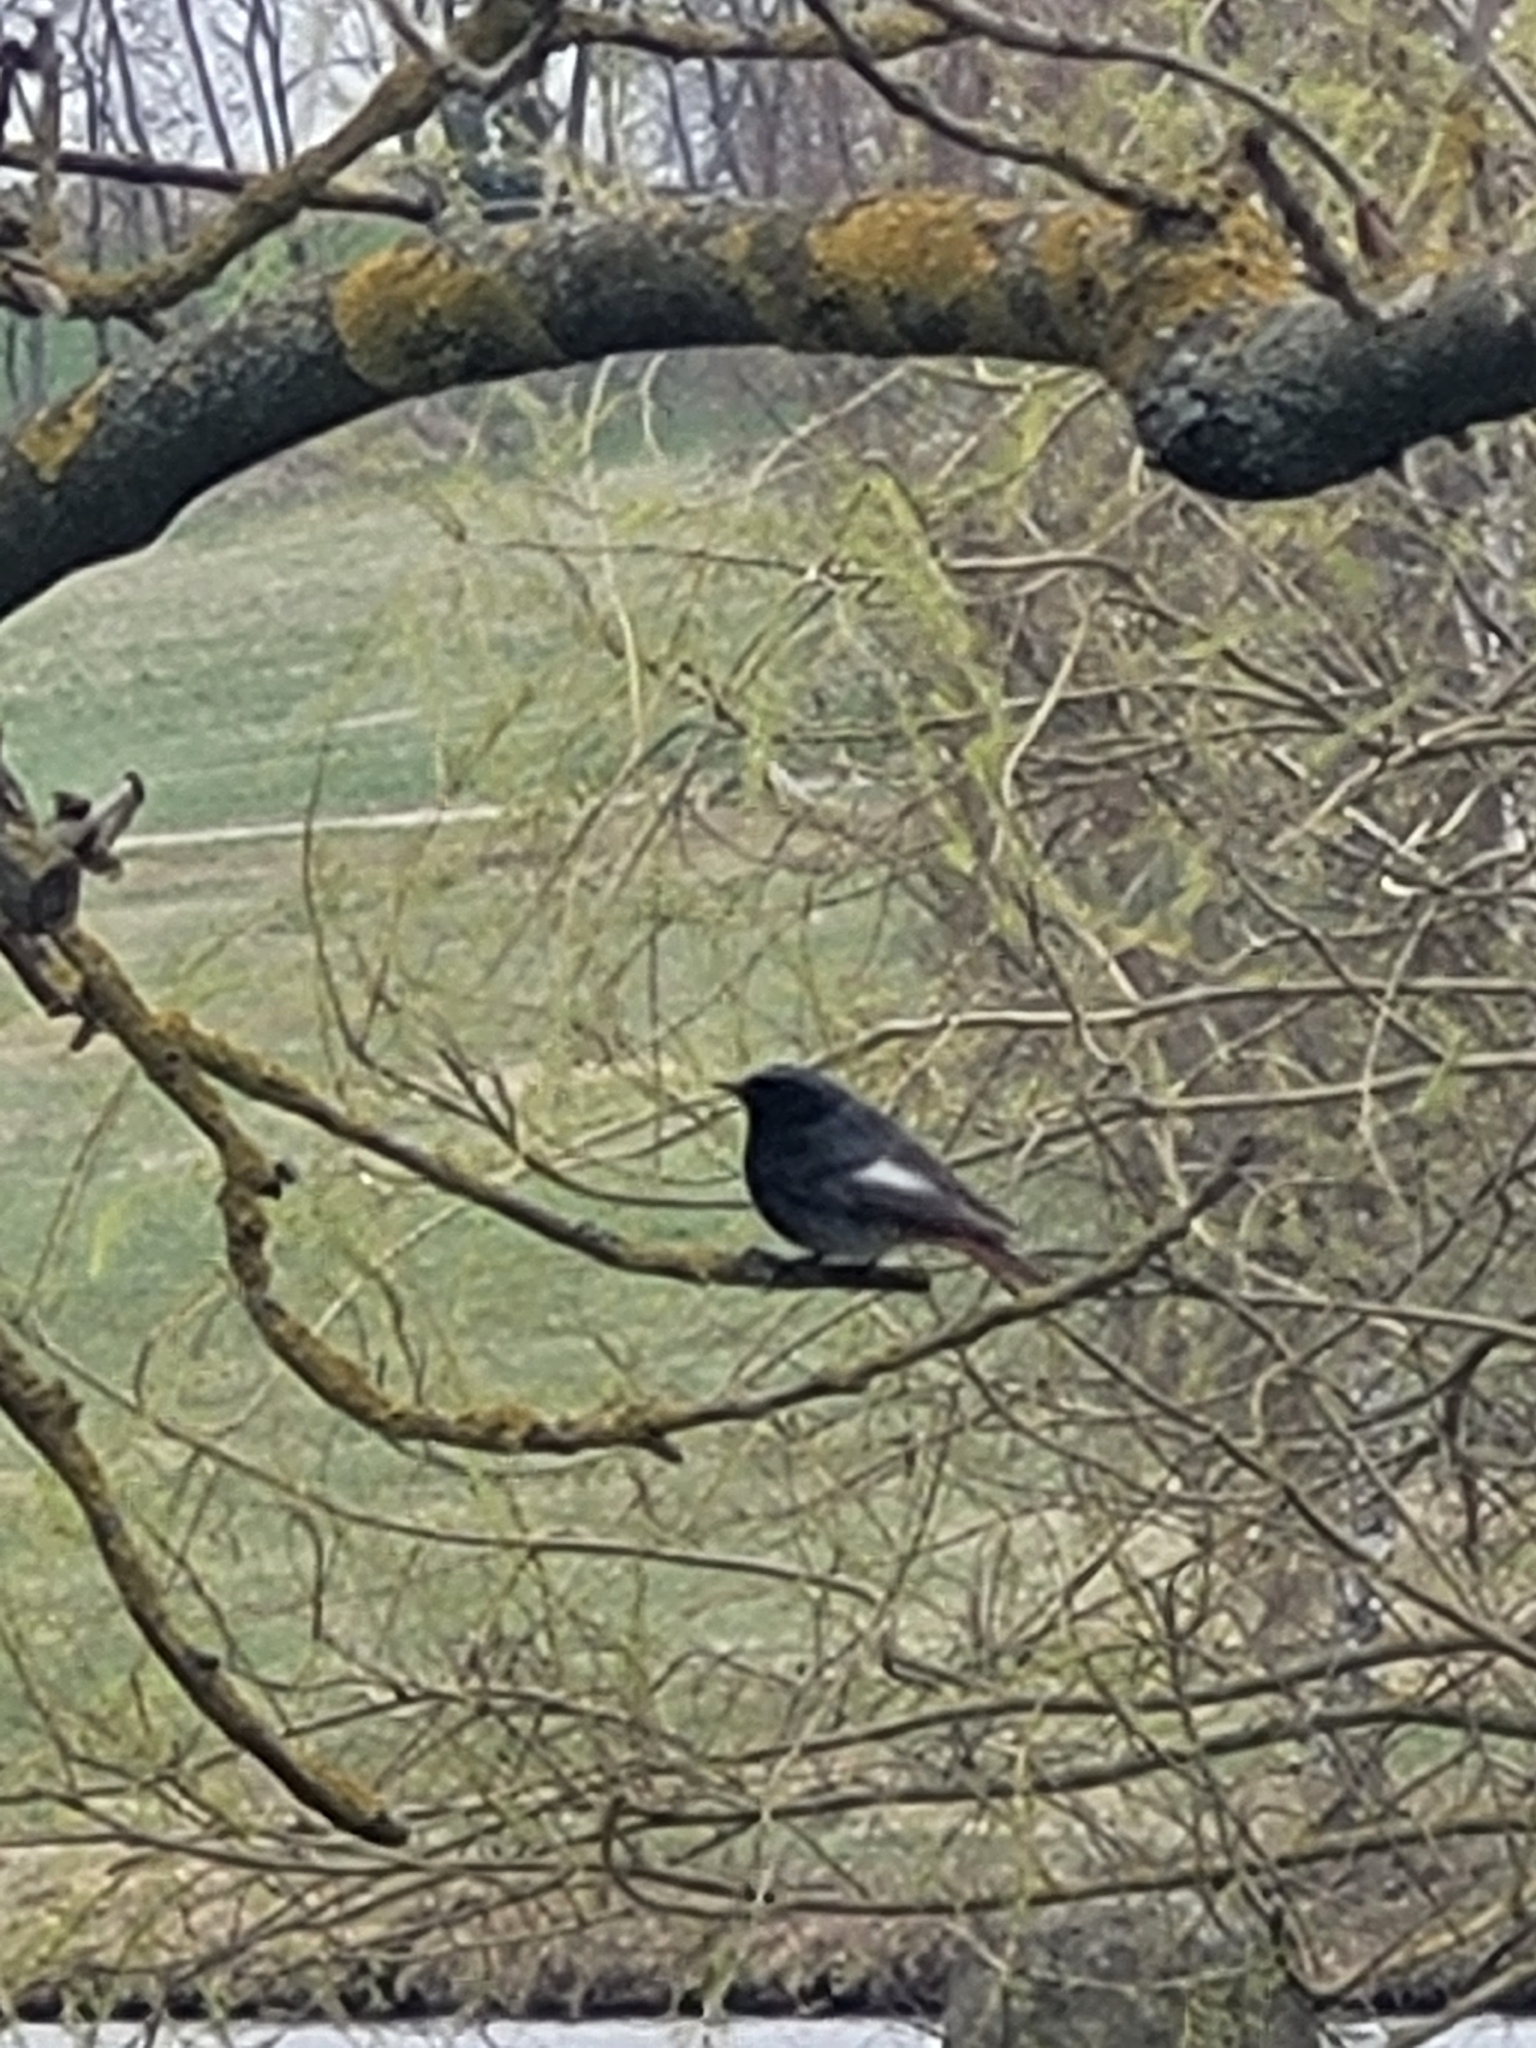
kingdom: Animalia
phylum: Chordata
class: Aves
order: Passeriformes
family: Muscicapidae
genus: Phoenicurus
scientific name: Phoenicurus ochruros
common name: Black redstart
